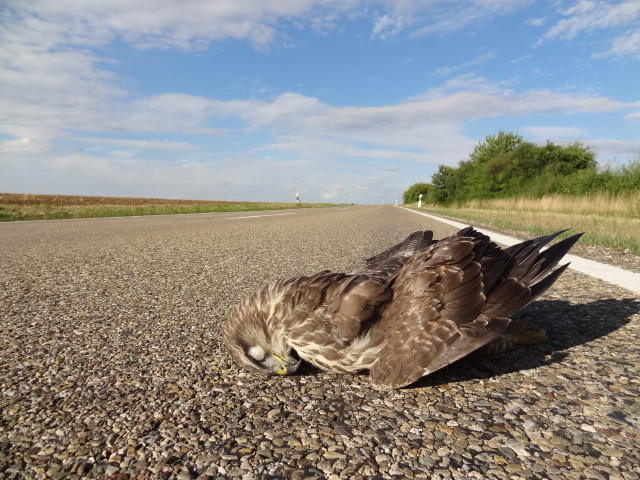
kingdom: Animalia
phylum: Chordata
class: Aves
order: Accipitriformes
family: Accipitridae
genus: Buteo
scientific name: Buteo buteo
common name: Common buzzard
